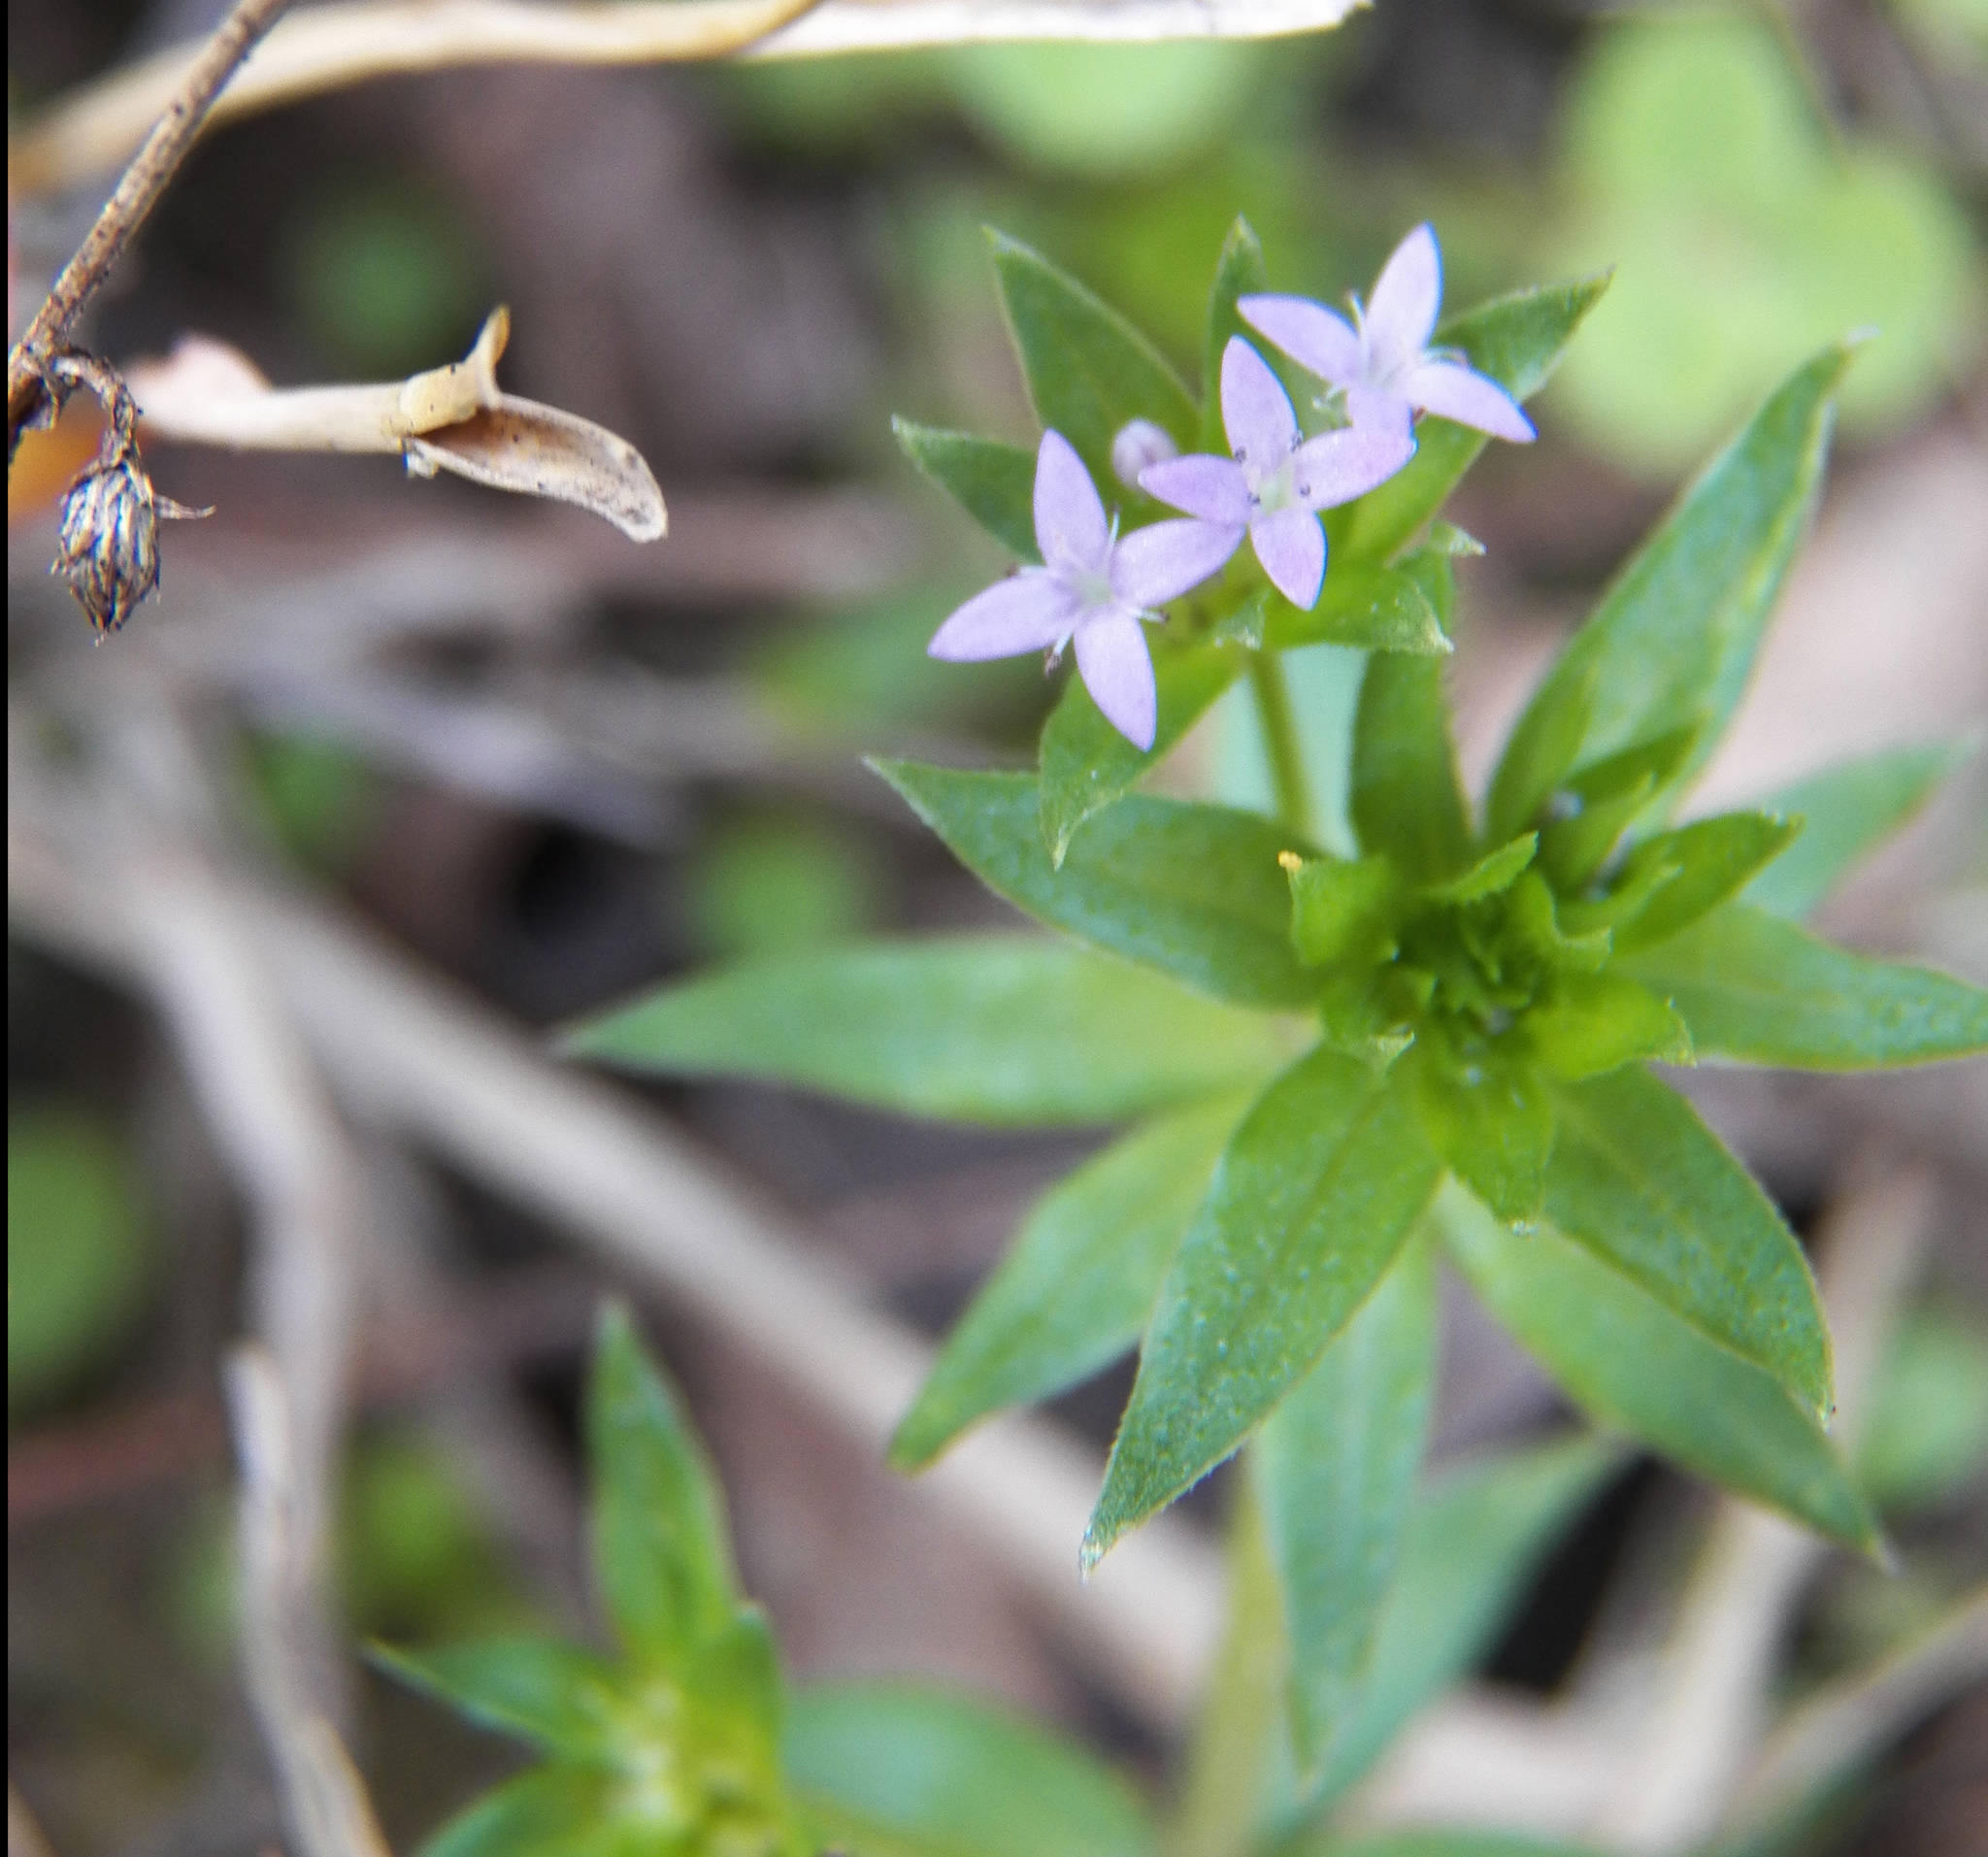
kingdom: Plantae
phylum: Tracheophyta
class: Magnoliopsida
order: Gentianales
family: Rubiaceae
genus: Sherardia
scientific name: Sherardia arvensis
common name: Field madder
